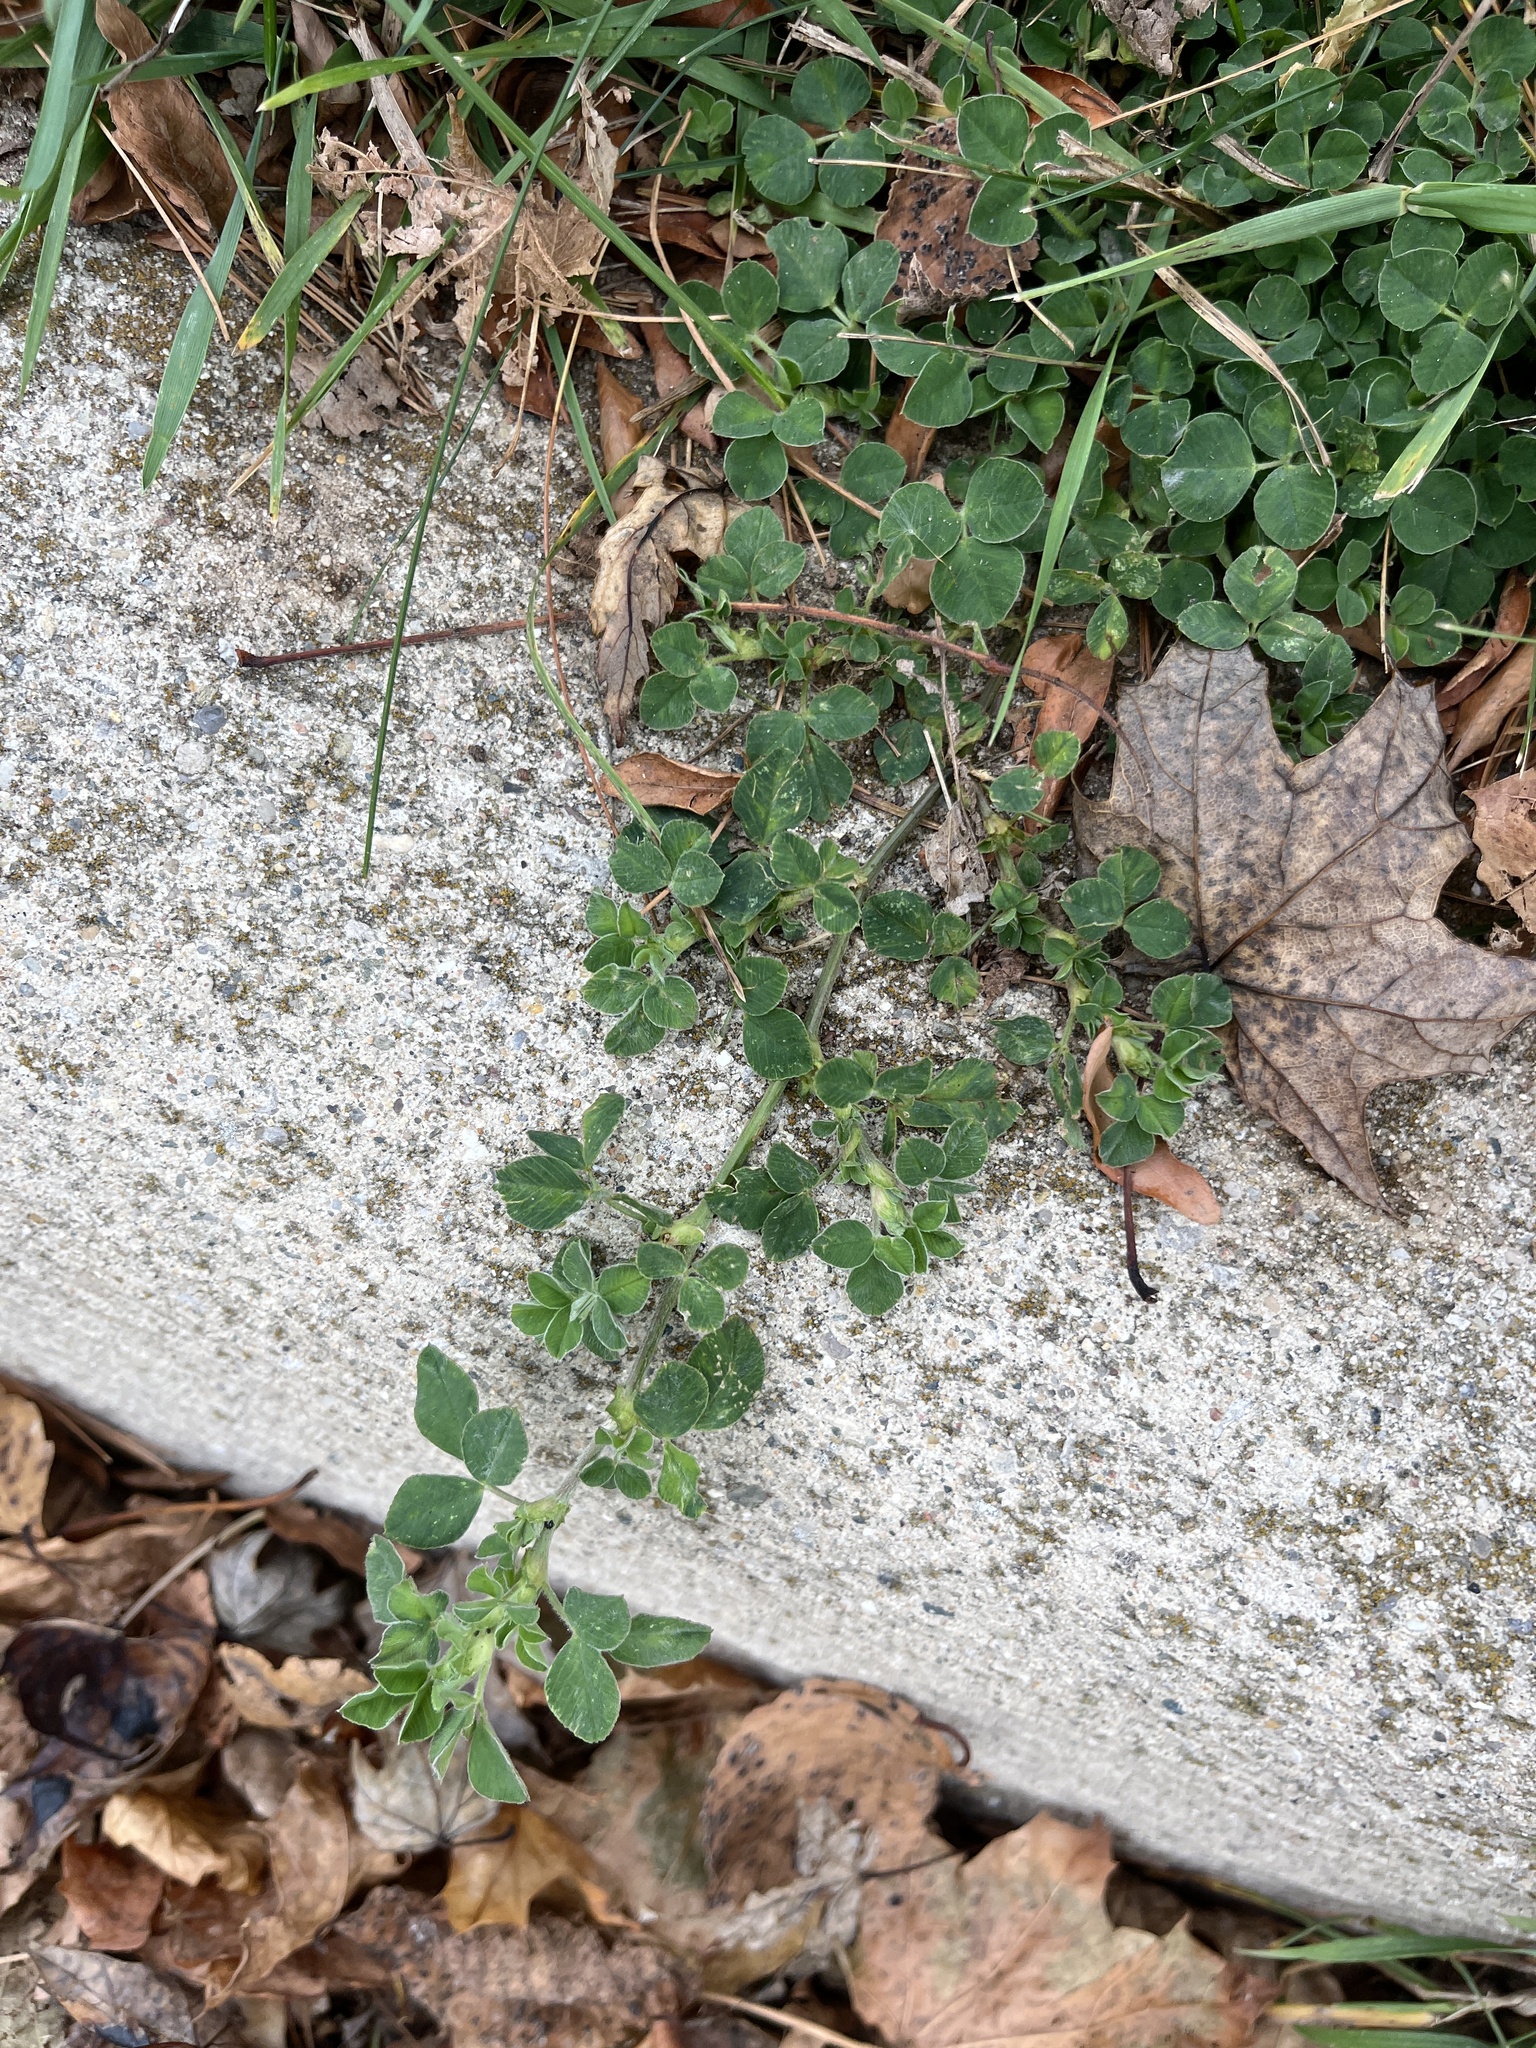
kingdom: Plantae
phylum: Tracheophyta
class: Magnoliopsida
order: Fabales
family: Fabaceae
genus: Medicago
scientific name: Medicago lupulina
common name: Black medick
